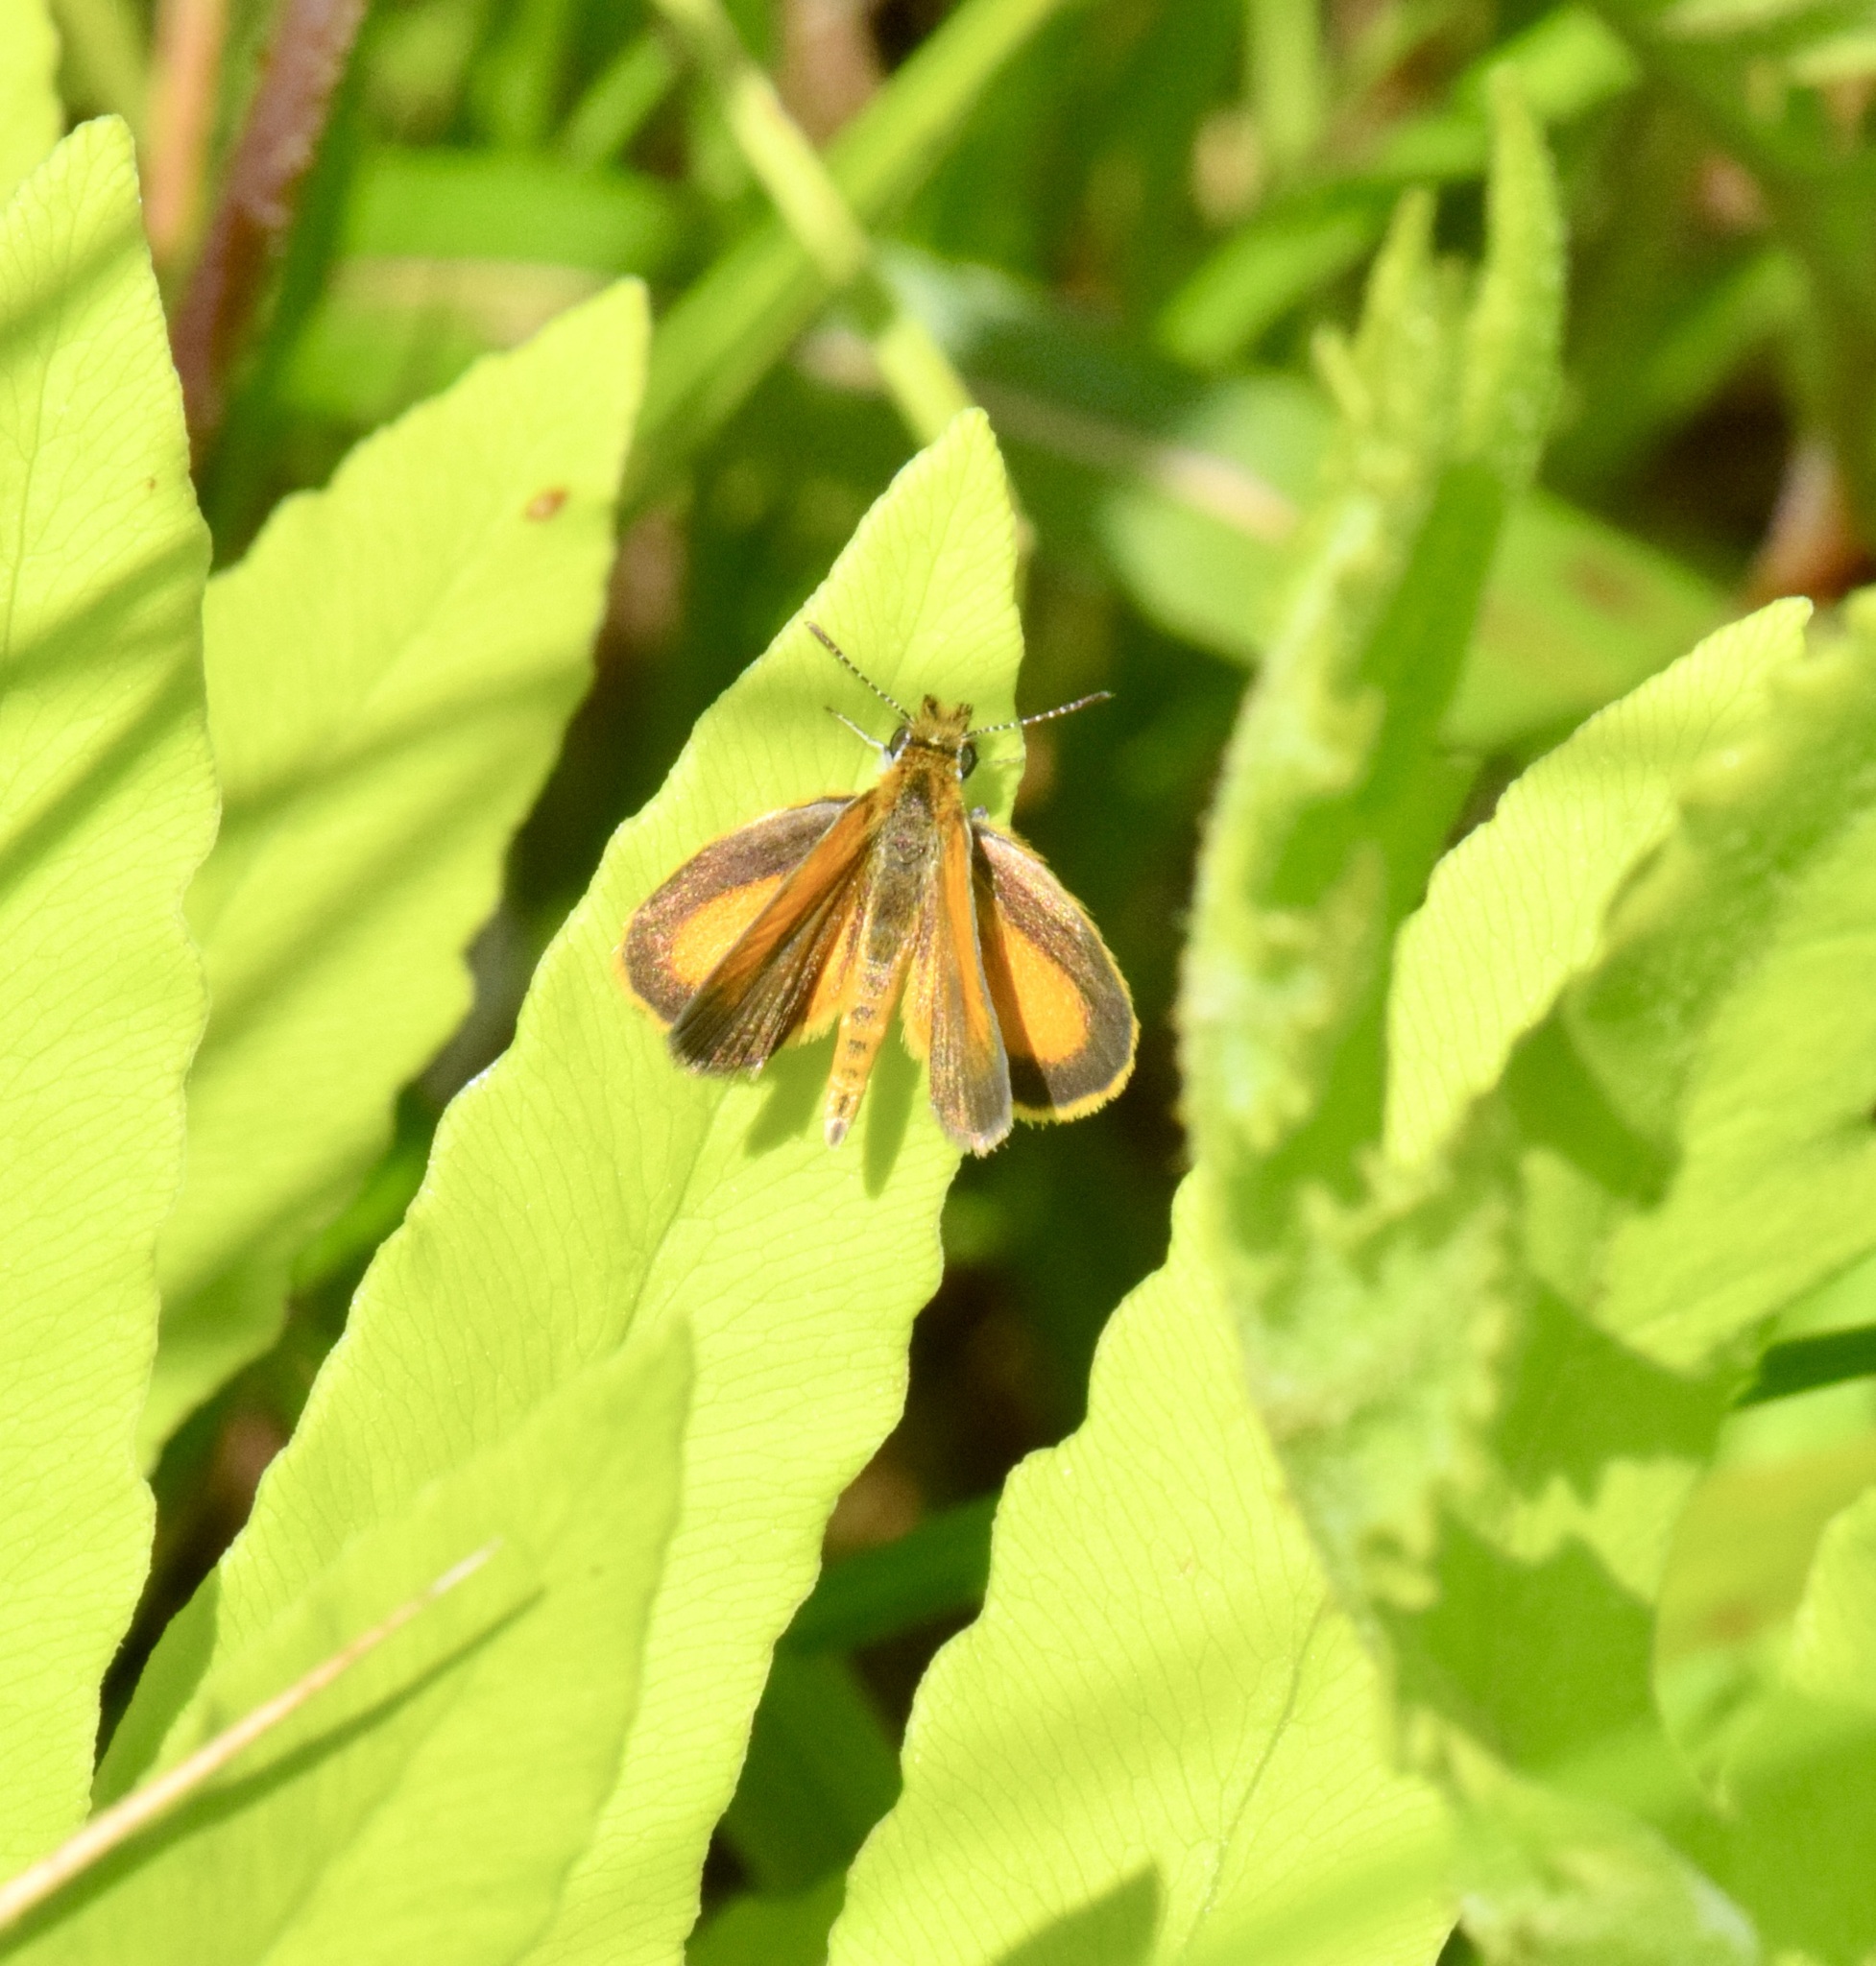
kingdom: Animalia
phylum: Arthropoda
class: Insecta
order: Lepidoptera
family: Hesperiidae
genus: Ancyloxypha
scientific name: Ancyloxypha numitor
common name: Least skipper
